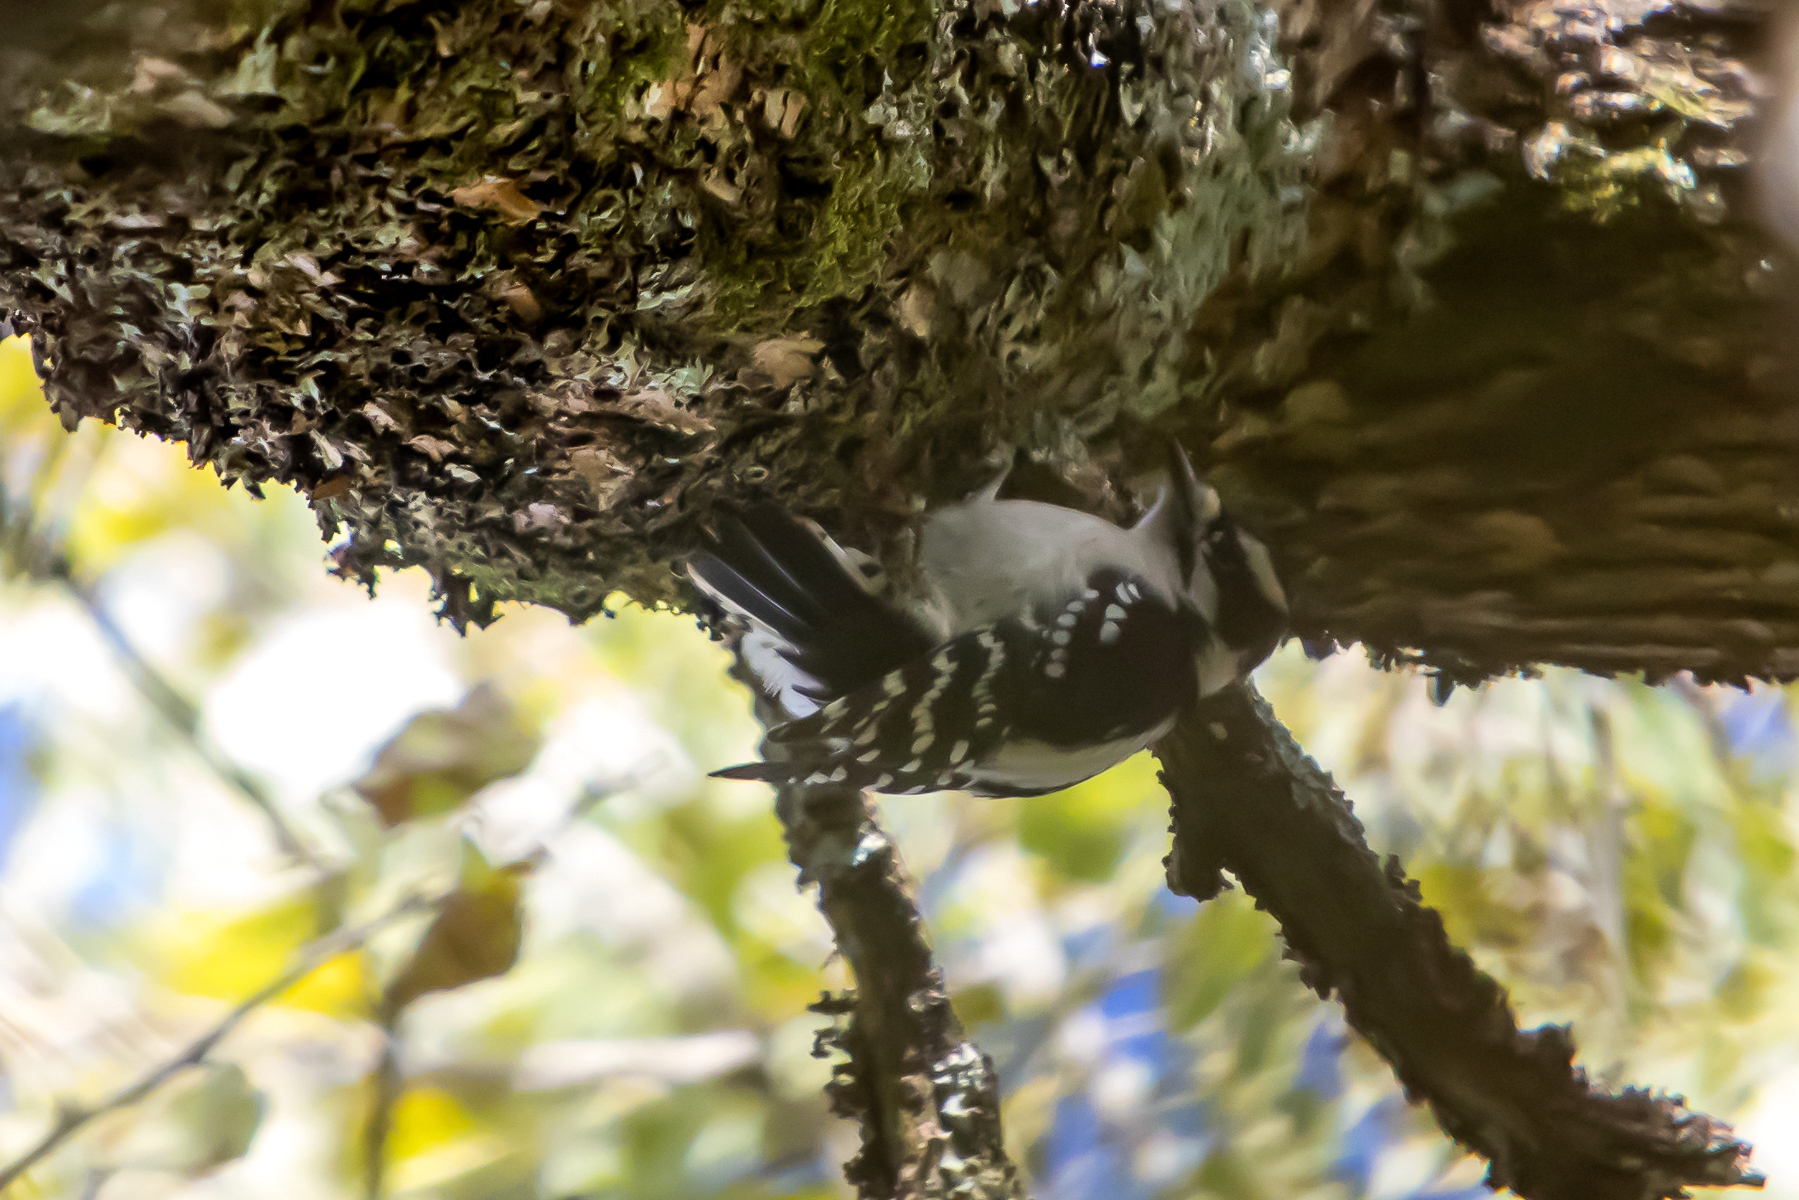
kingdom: Animalia
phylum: Chordata
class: Aves
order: Piciformes
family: Picidae
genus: Dryobates
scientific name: Dryobates pubescens
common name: Downy woodpecker
